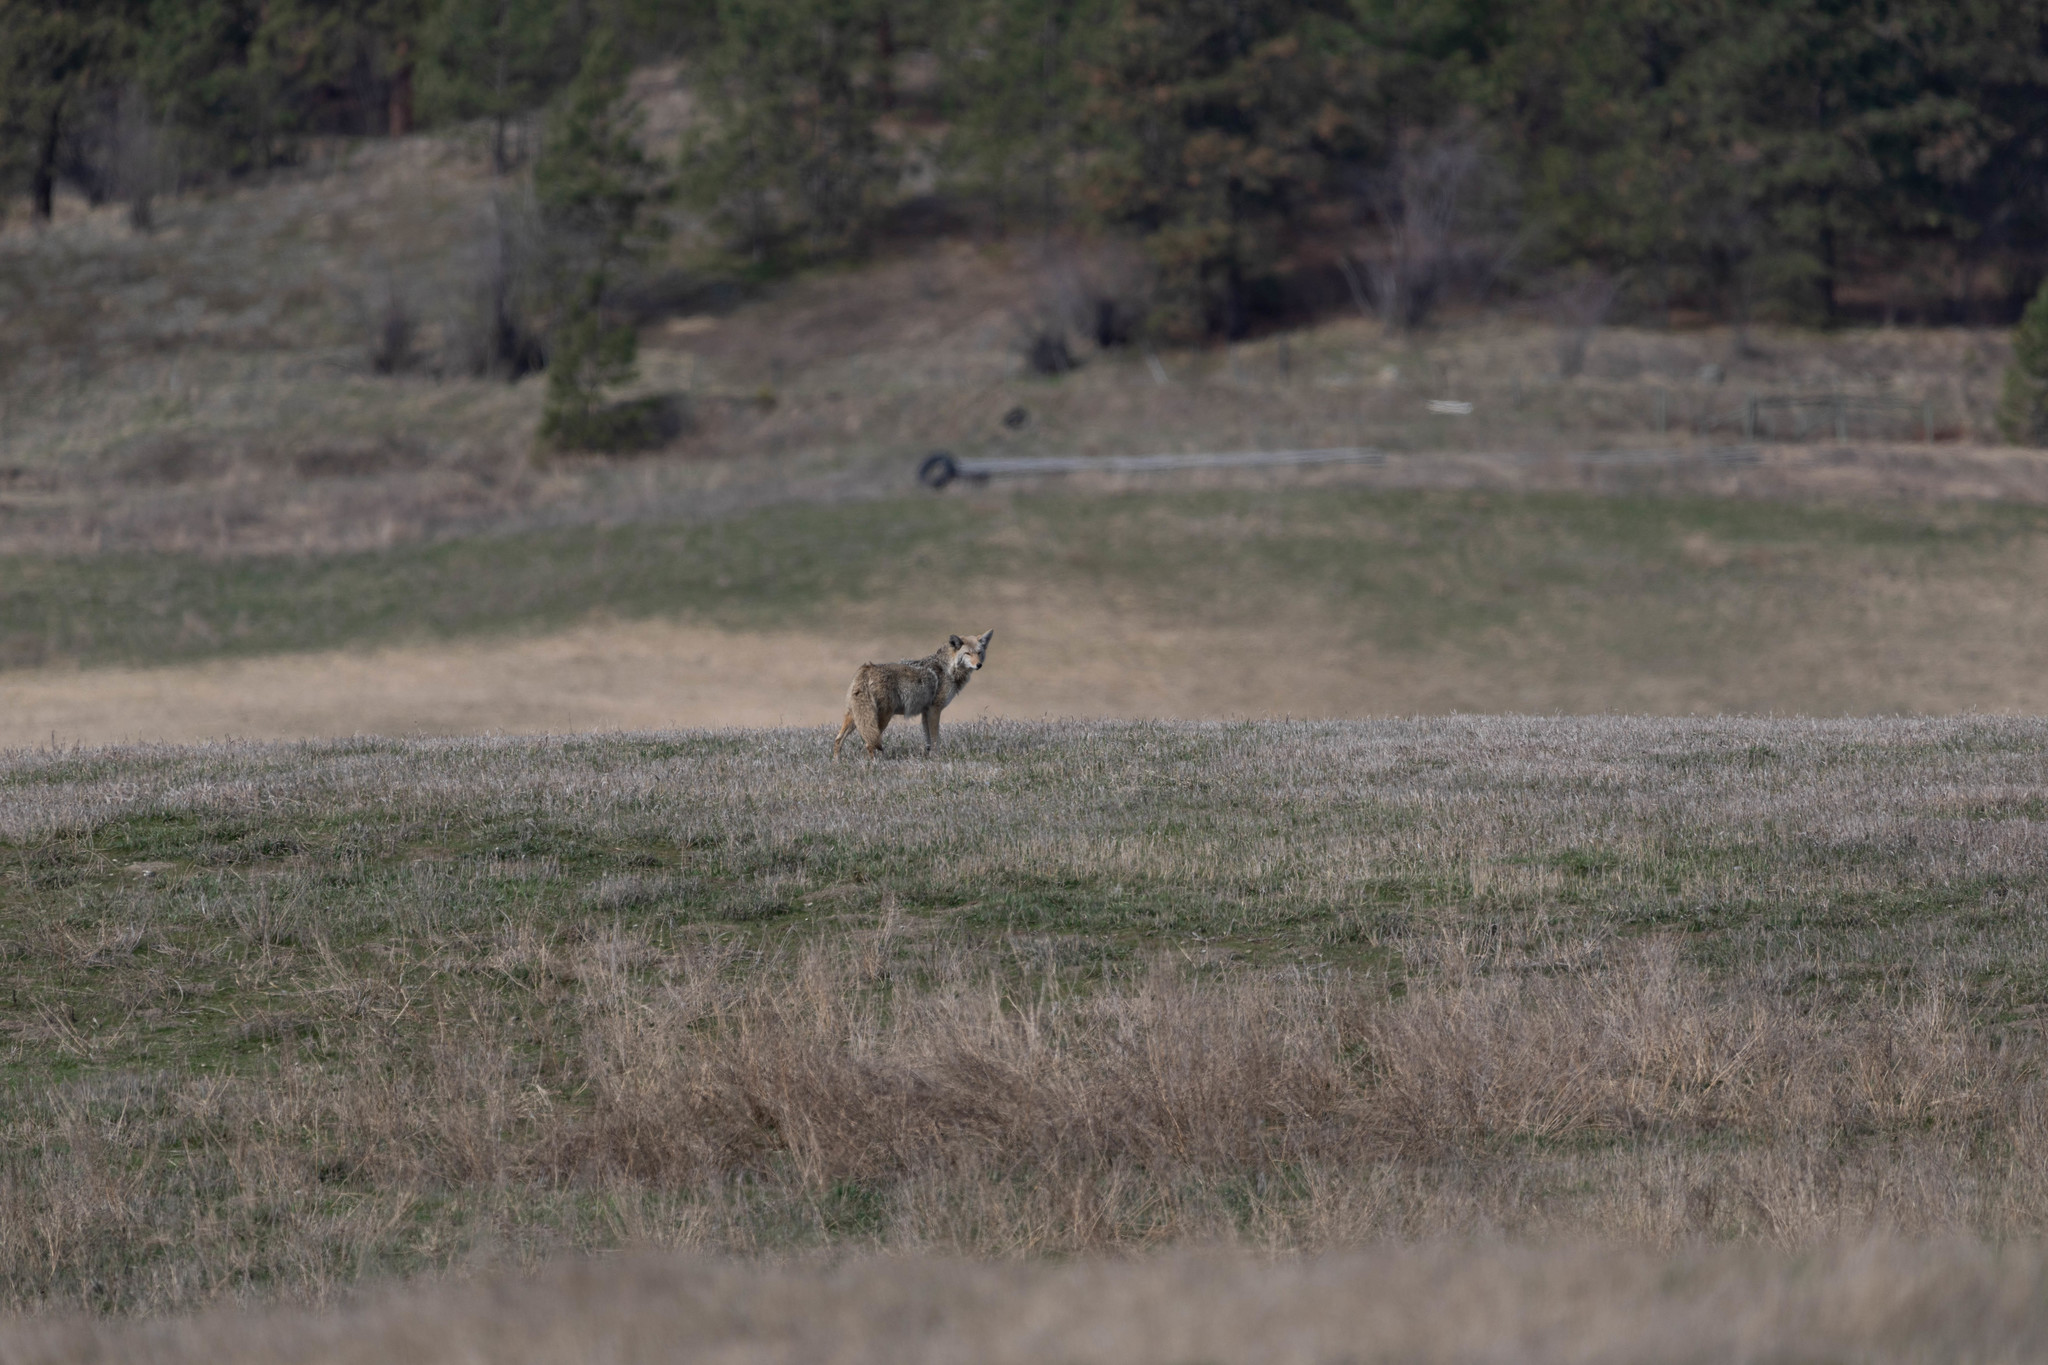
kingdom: Animalia
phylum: Chordata
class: Mammalia
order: Carnivora
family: Canidae
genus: Canis
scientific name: Canis latrans
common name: Coyote
